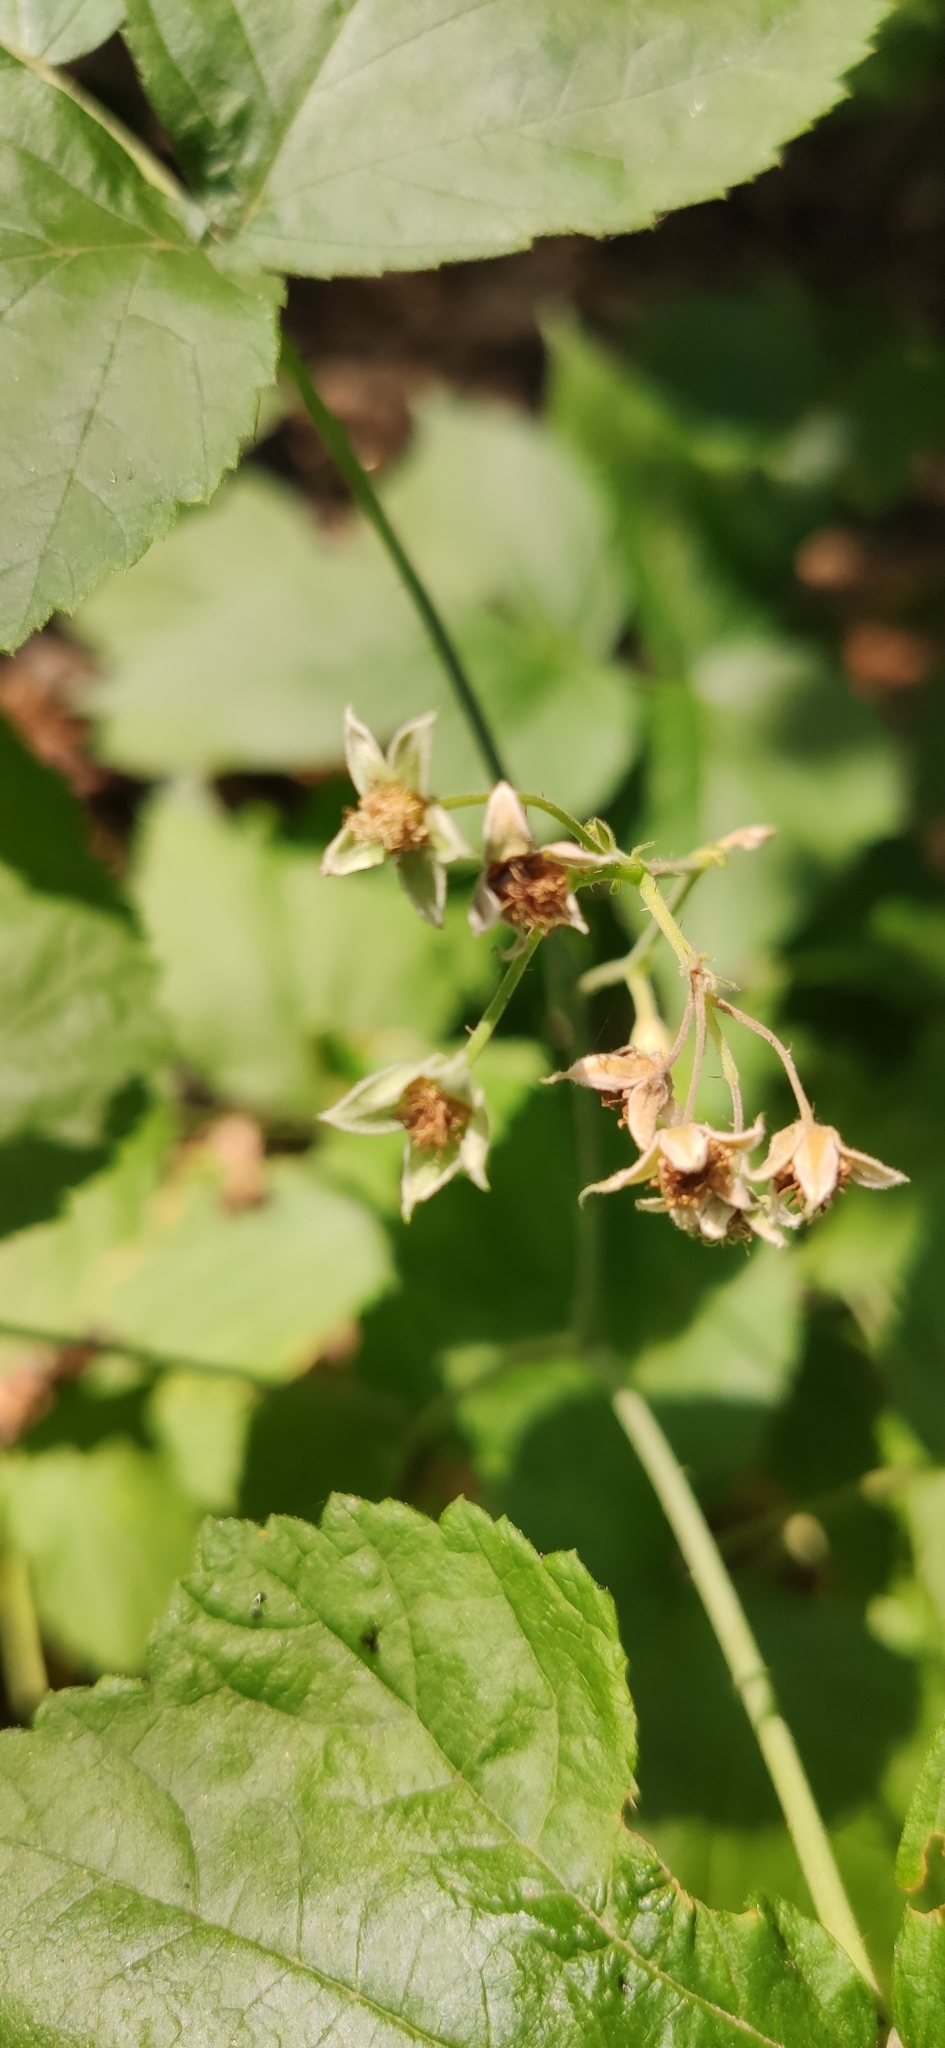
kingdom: Plantae
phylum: Tracheophyta
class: Magnoliopsida
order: Rosales
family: Rosaceae
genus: Rubus
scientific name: Rubus caesius
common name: Dewberry
